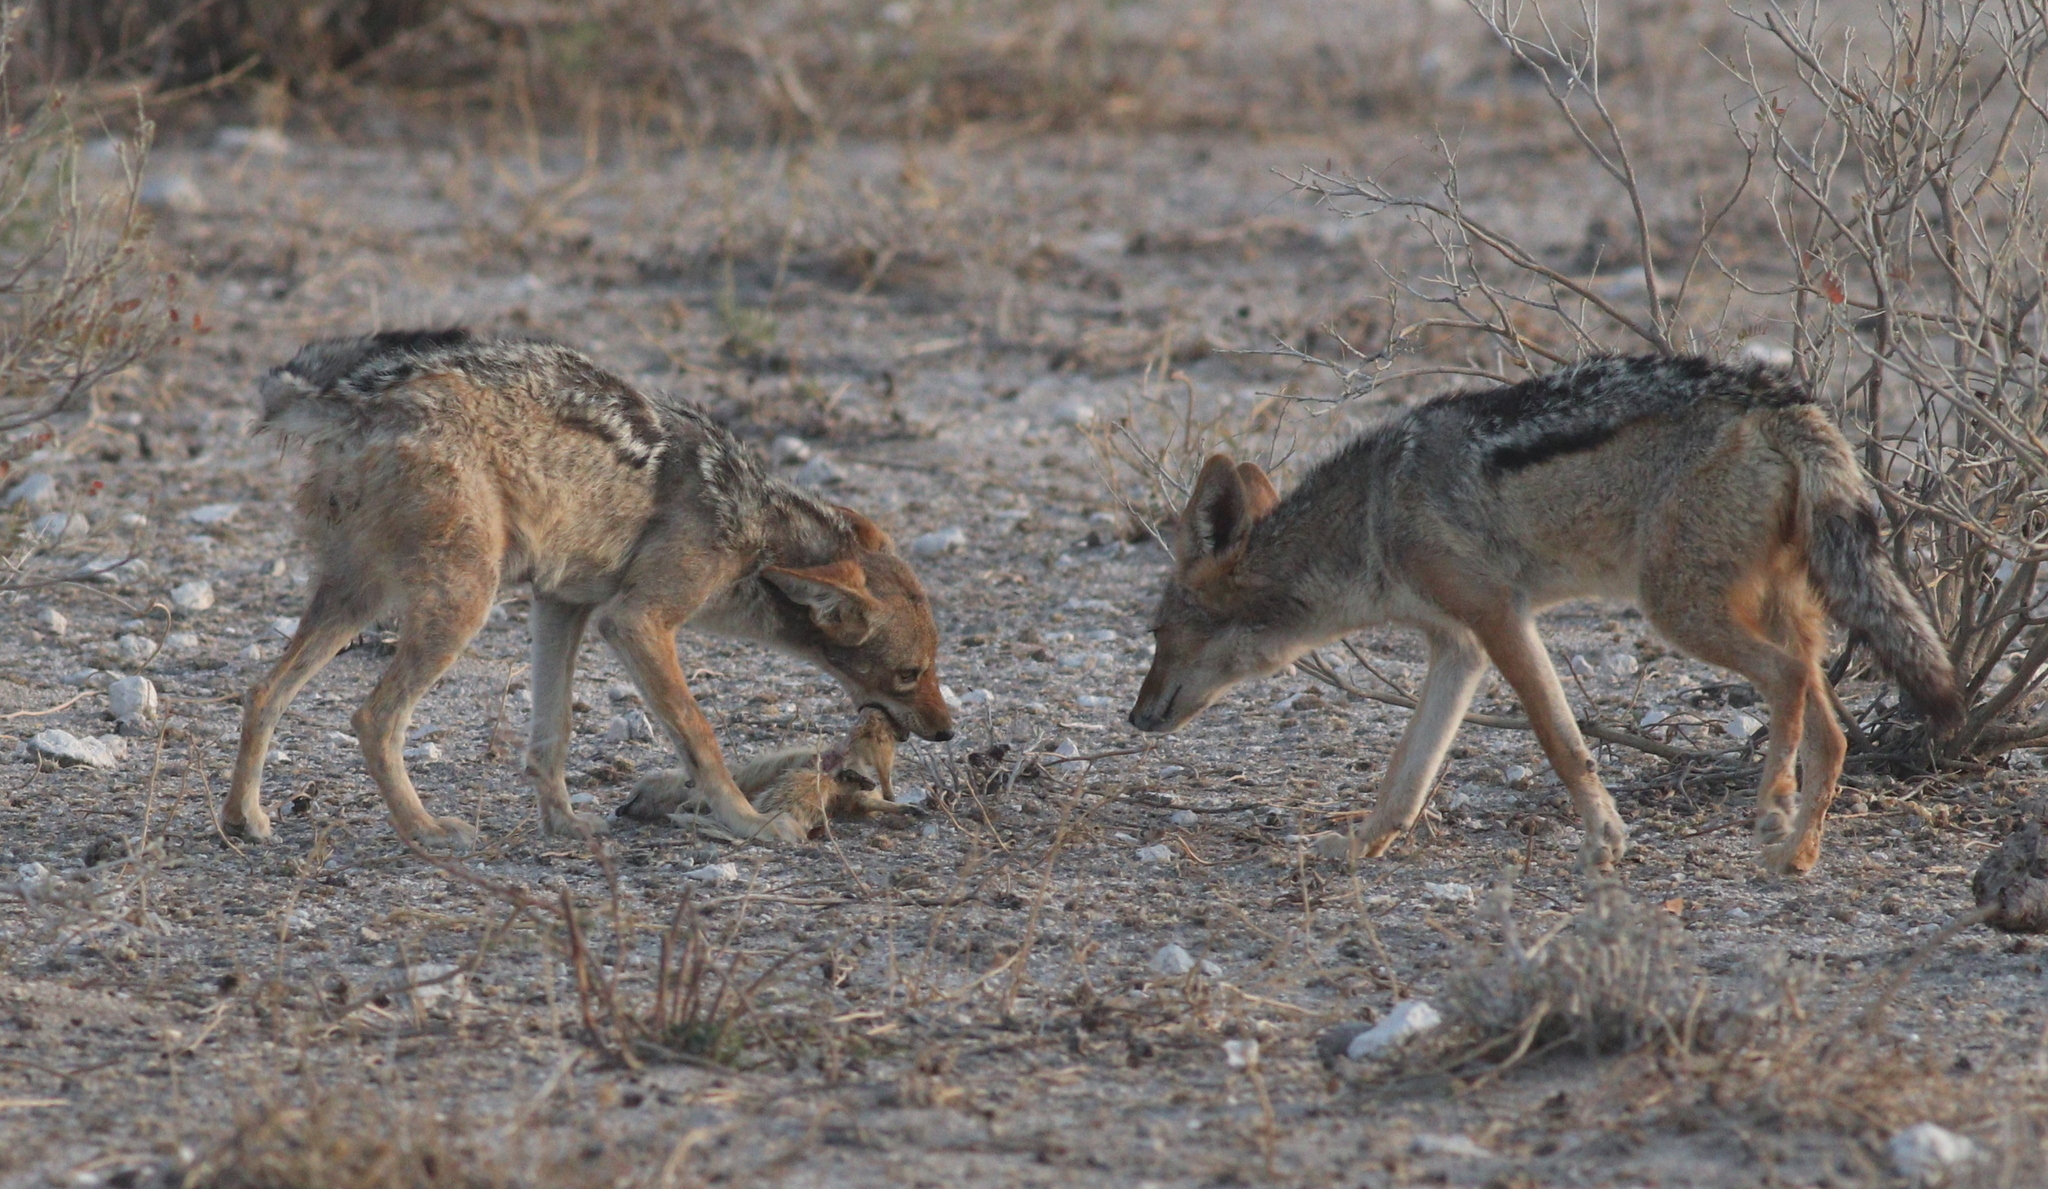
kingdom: Animalia
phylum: Chordata
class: Mammalia
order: Carnivora
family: Canidae
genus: Lupulella
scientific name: Lupulella
